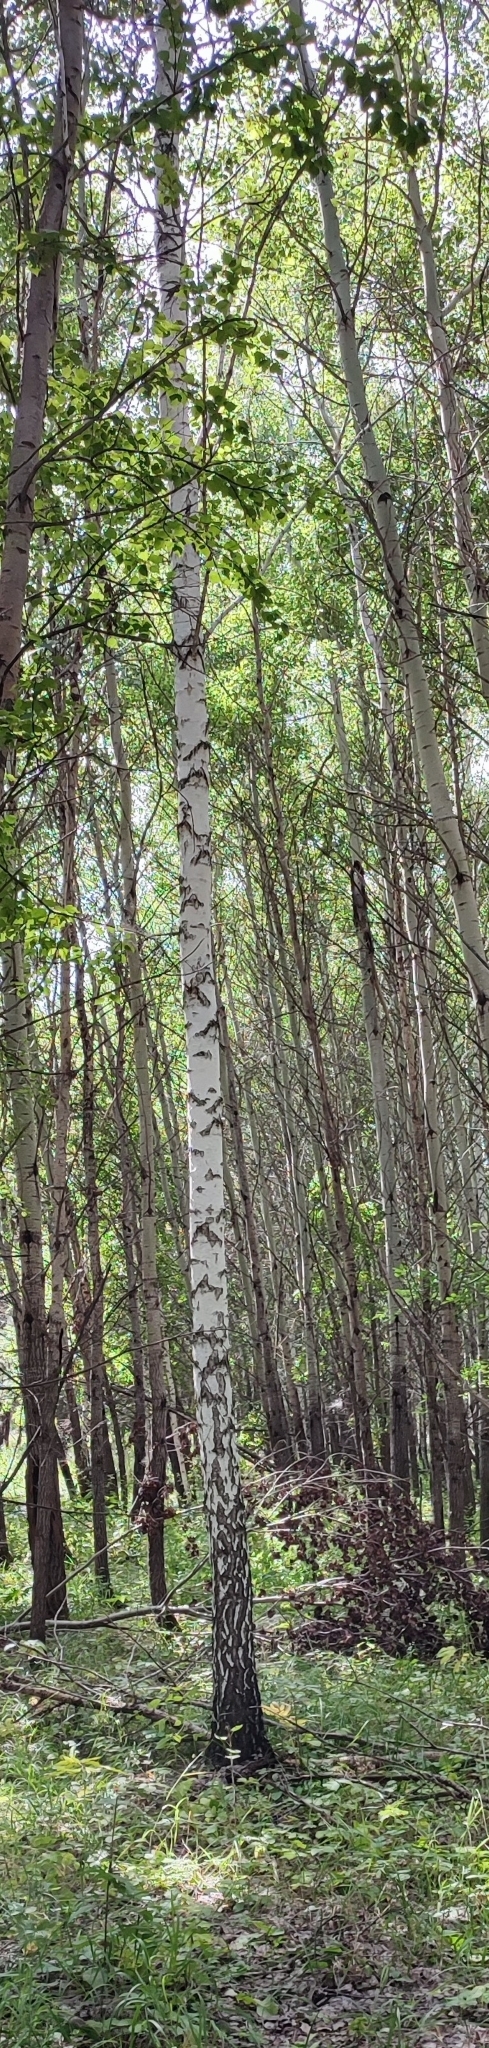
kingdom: Plantae
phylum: Tracheophyta
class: Magnoliopsida
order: Fagales
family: Betulaceae
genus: Betula
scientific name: Betula pendula
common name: Silver birch
